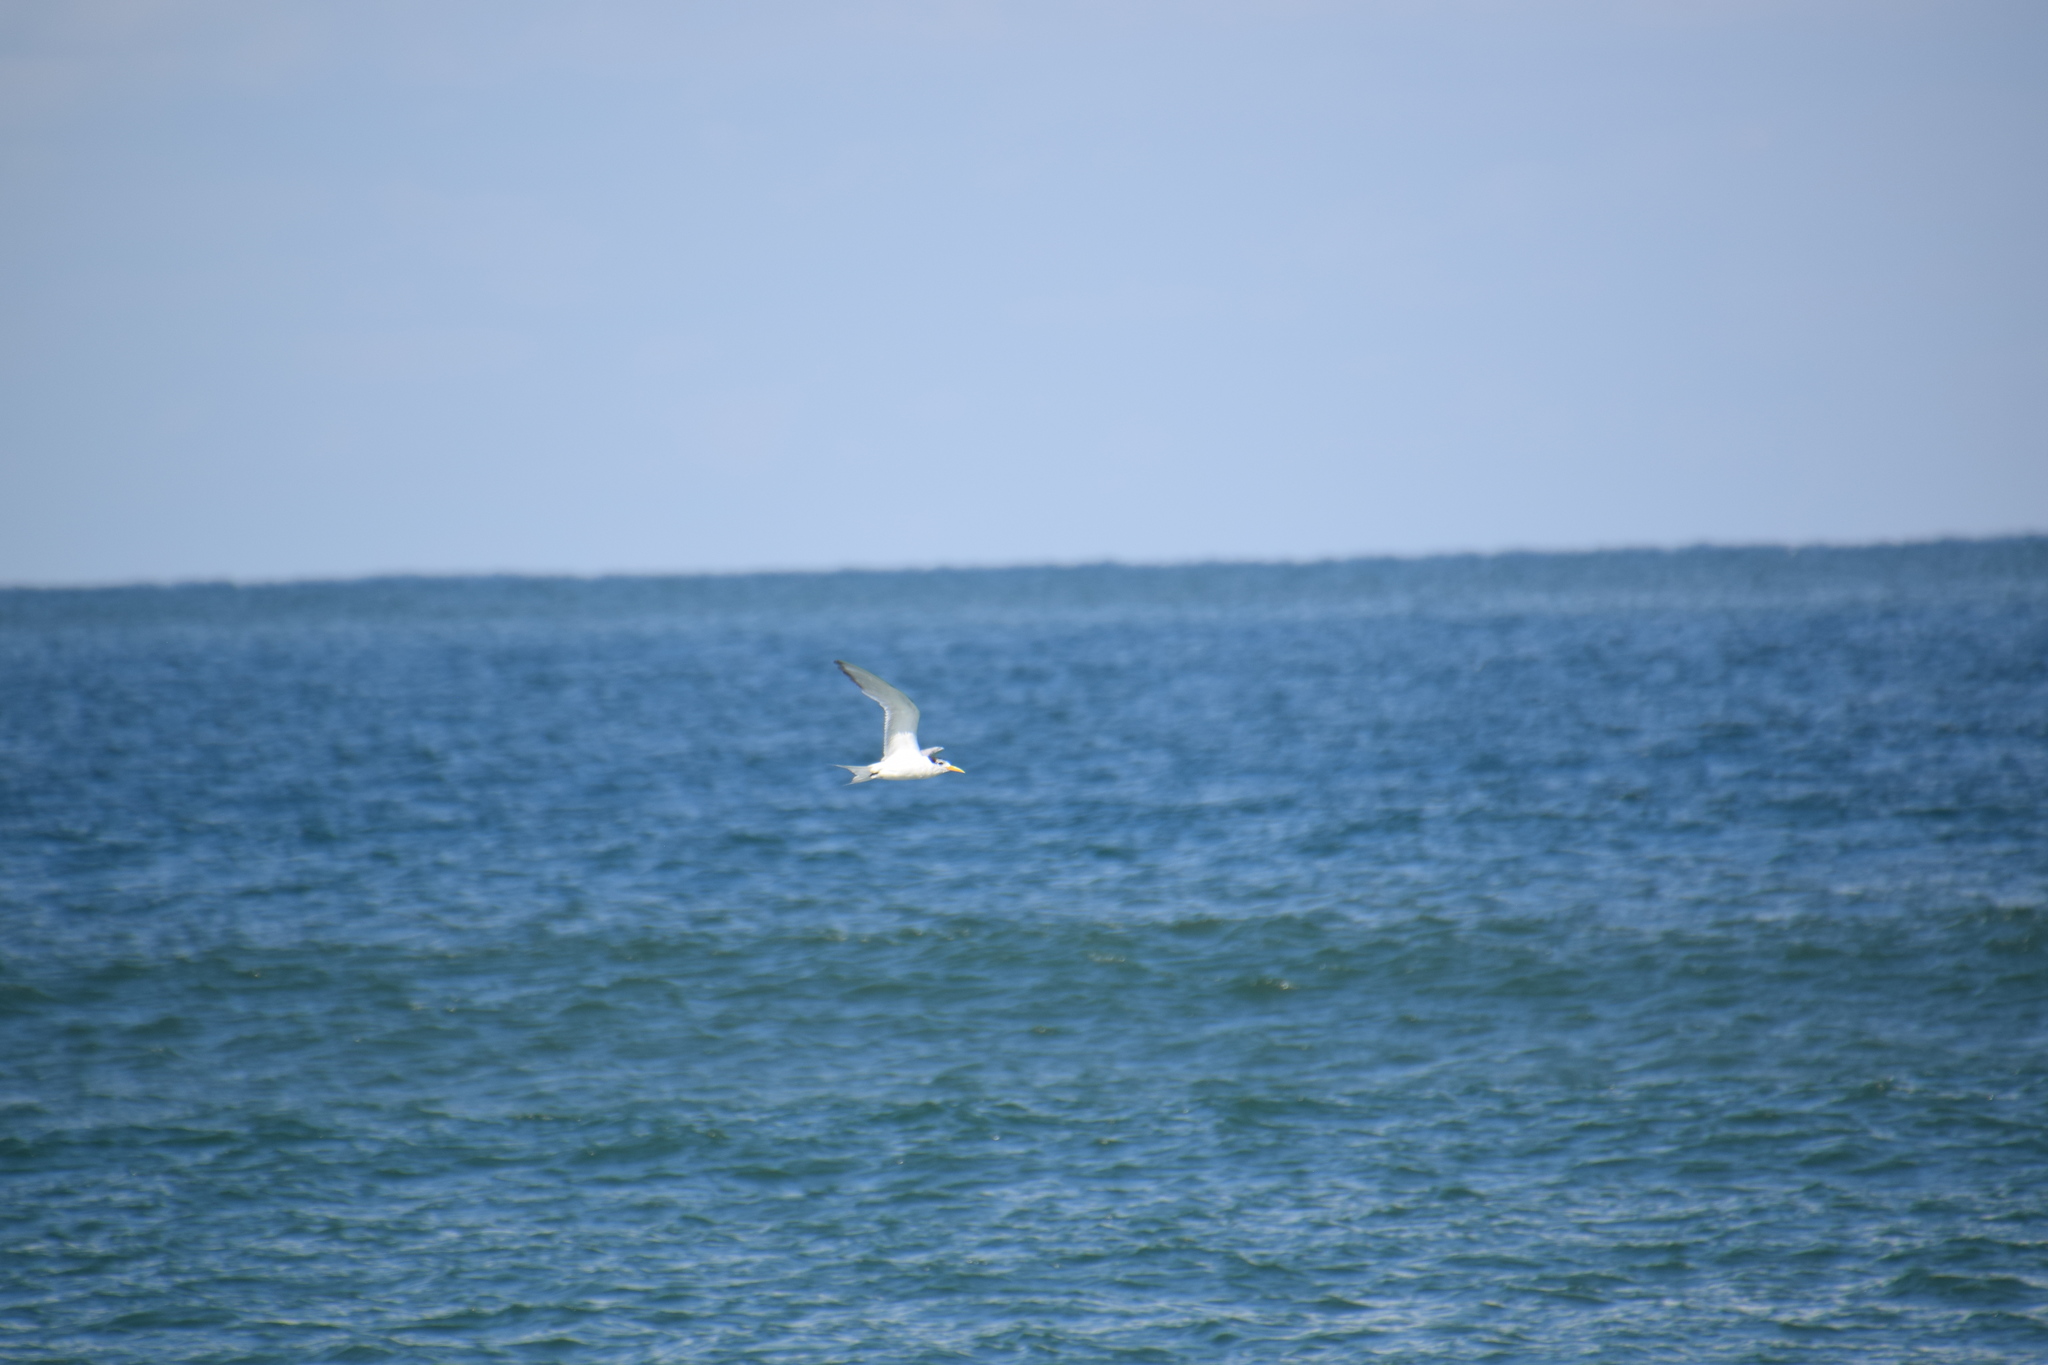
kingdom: Animalia
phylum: Chordata
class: Aves
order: Charadriiformes
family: Laridae
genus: Thalasseus
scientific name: Thalasseus bergii
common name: Greater crested tern
